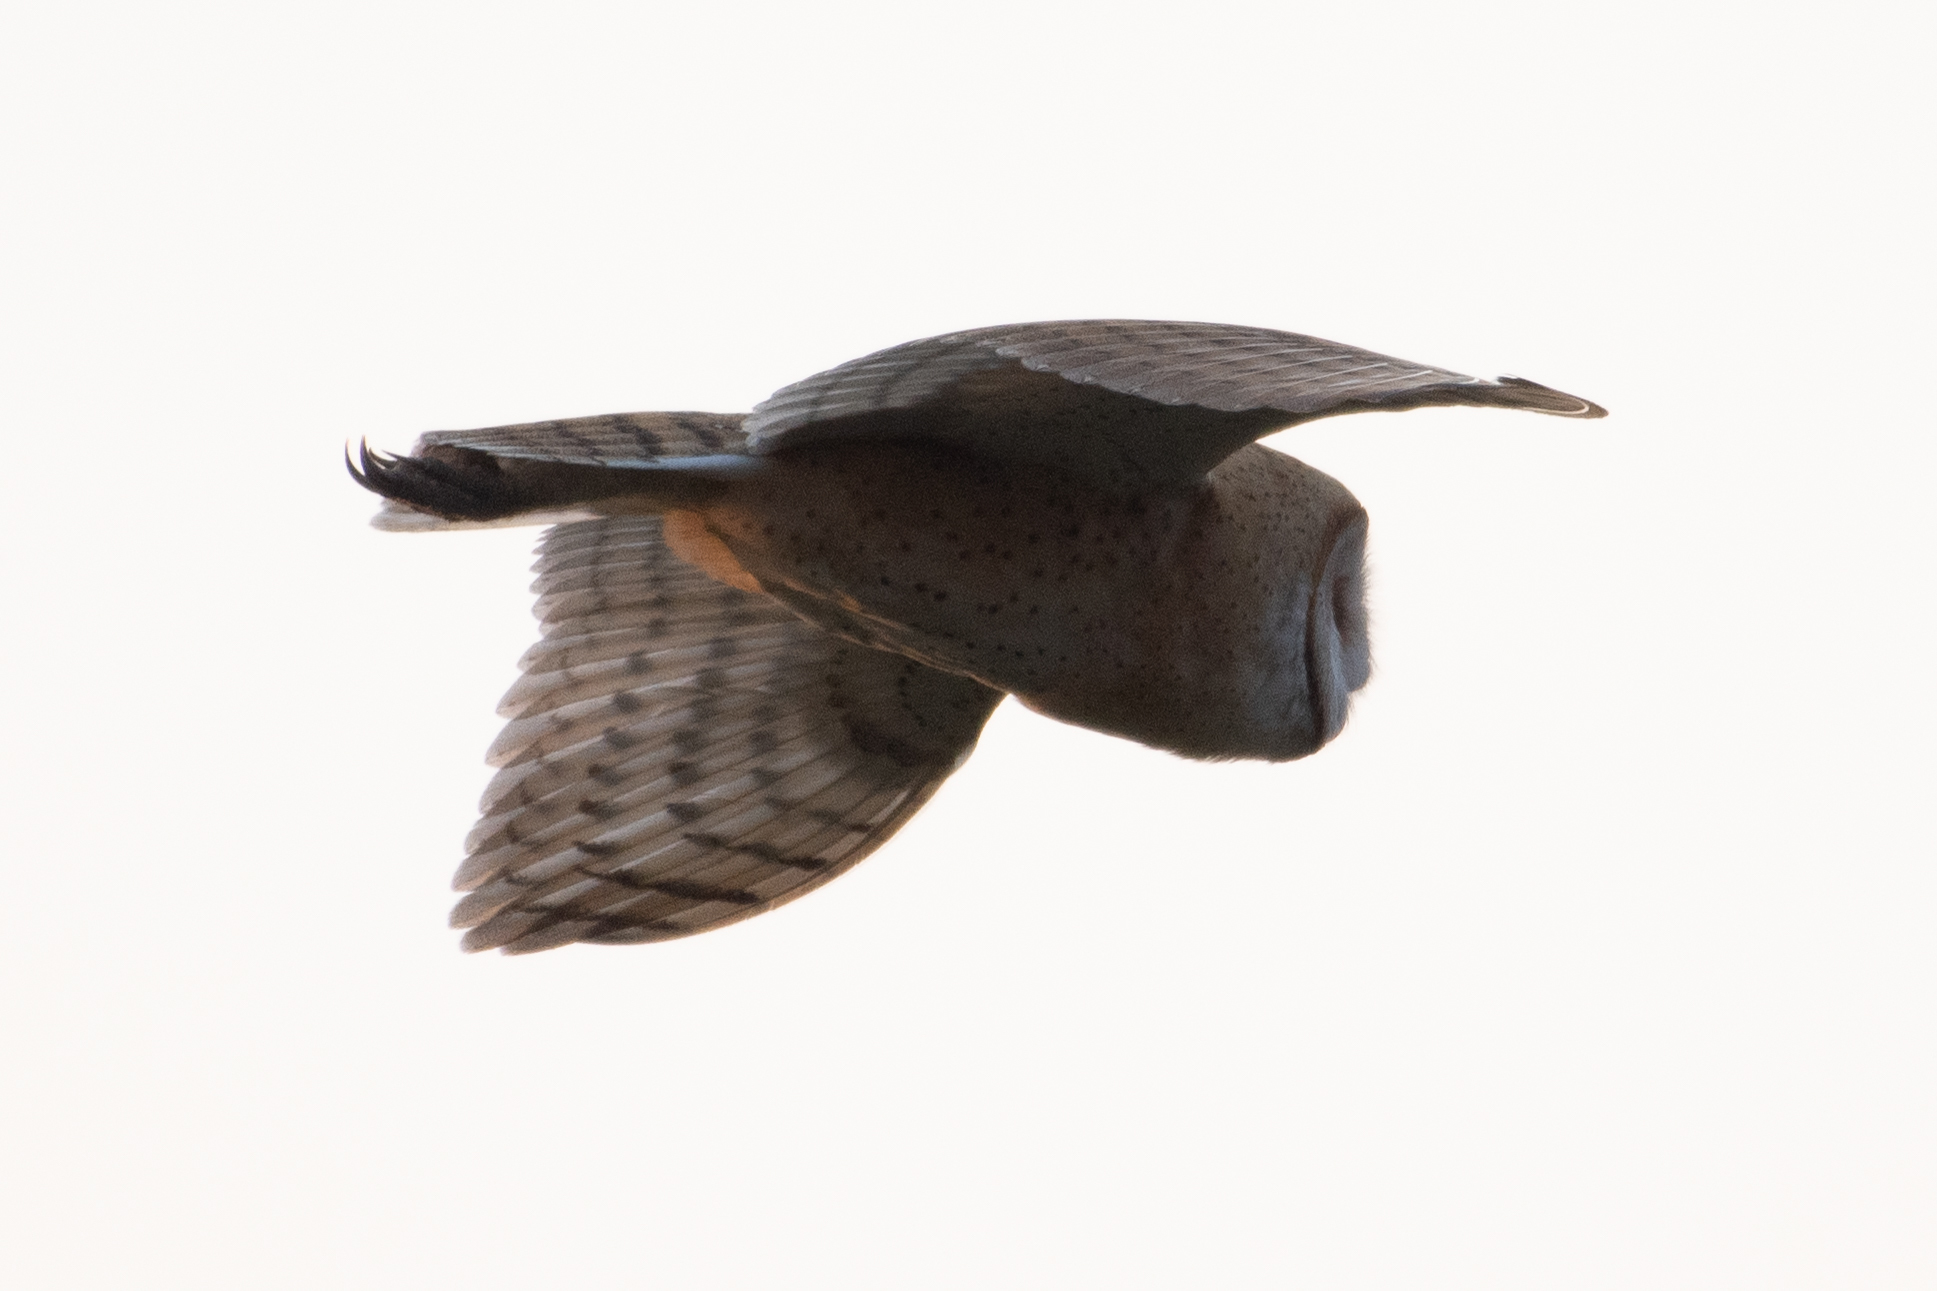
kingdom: Animalia
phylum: Chordata
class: Aves
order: Strigiformes
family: Tytonidae
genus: Tyto
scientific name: Tyto alba
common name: Barn owl
